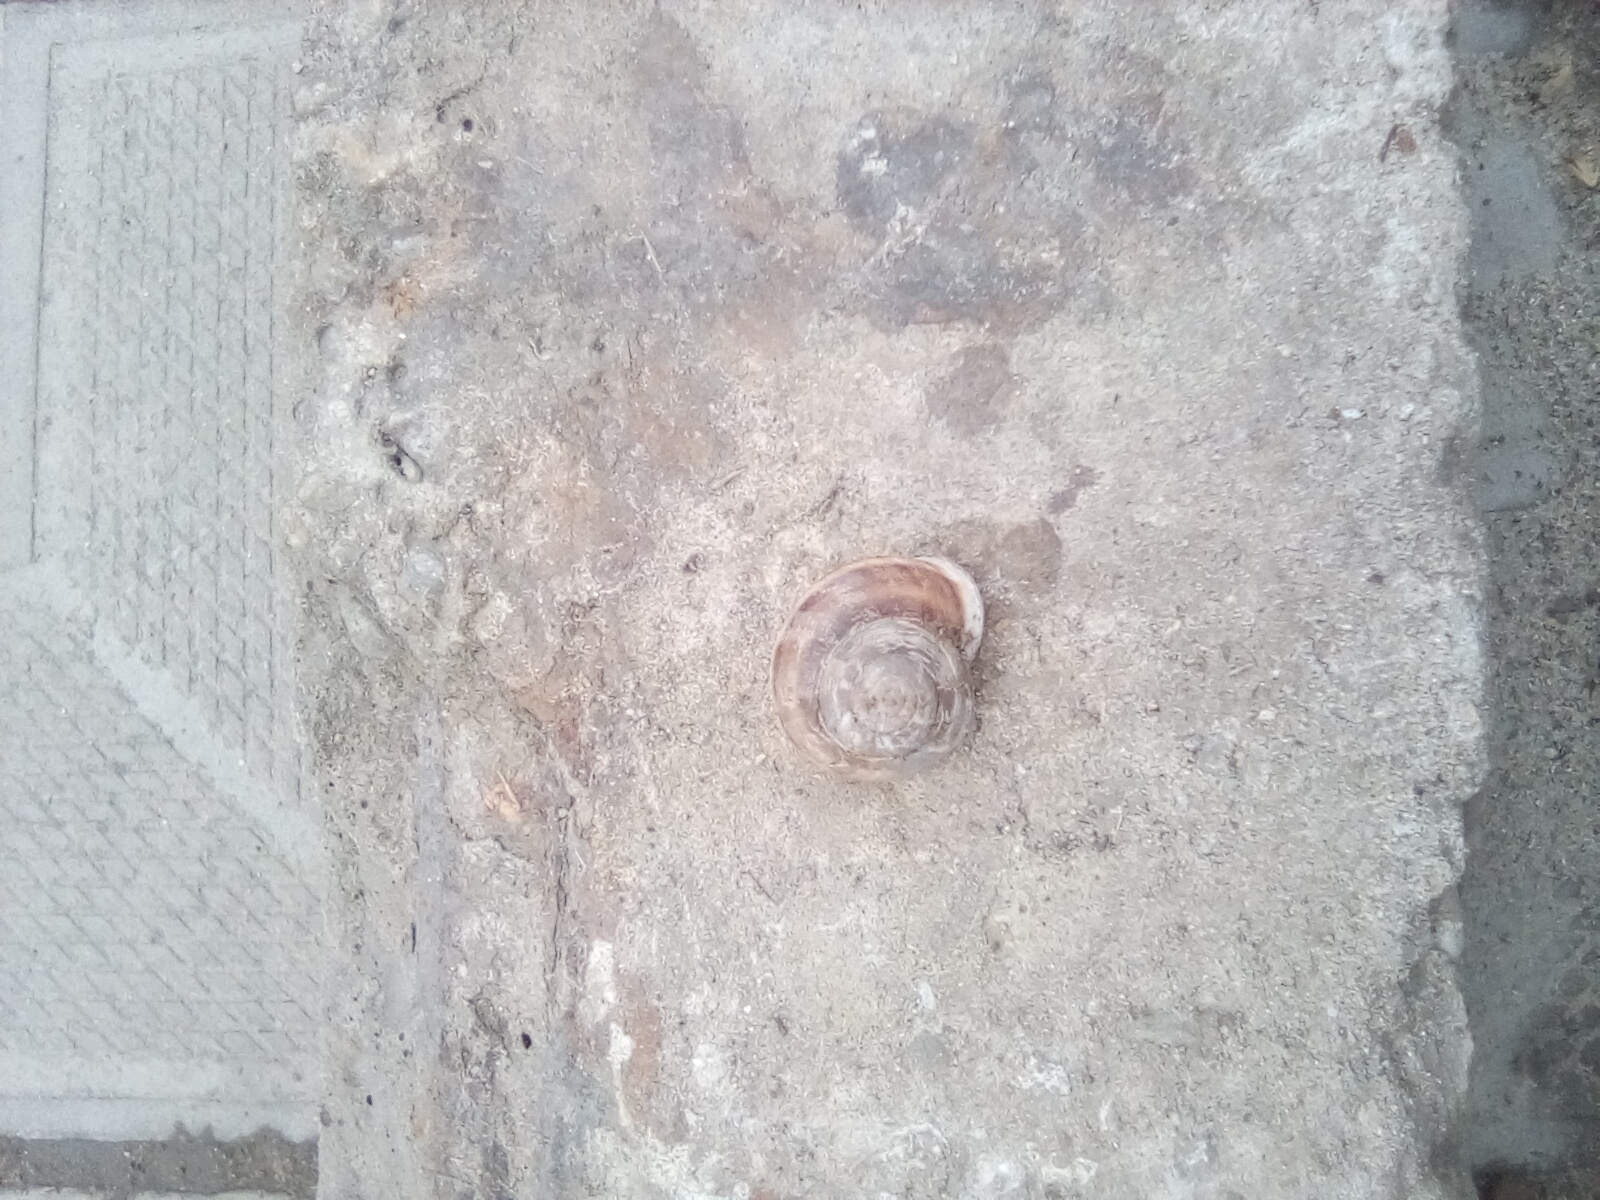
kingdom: Animalia
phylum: Mollusca
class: Gastropoda
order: Stylommatophora
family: Helicidae
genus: Eobania
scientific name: Eobania vermiculata
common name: Chocolateband snail
